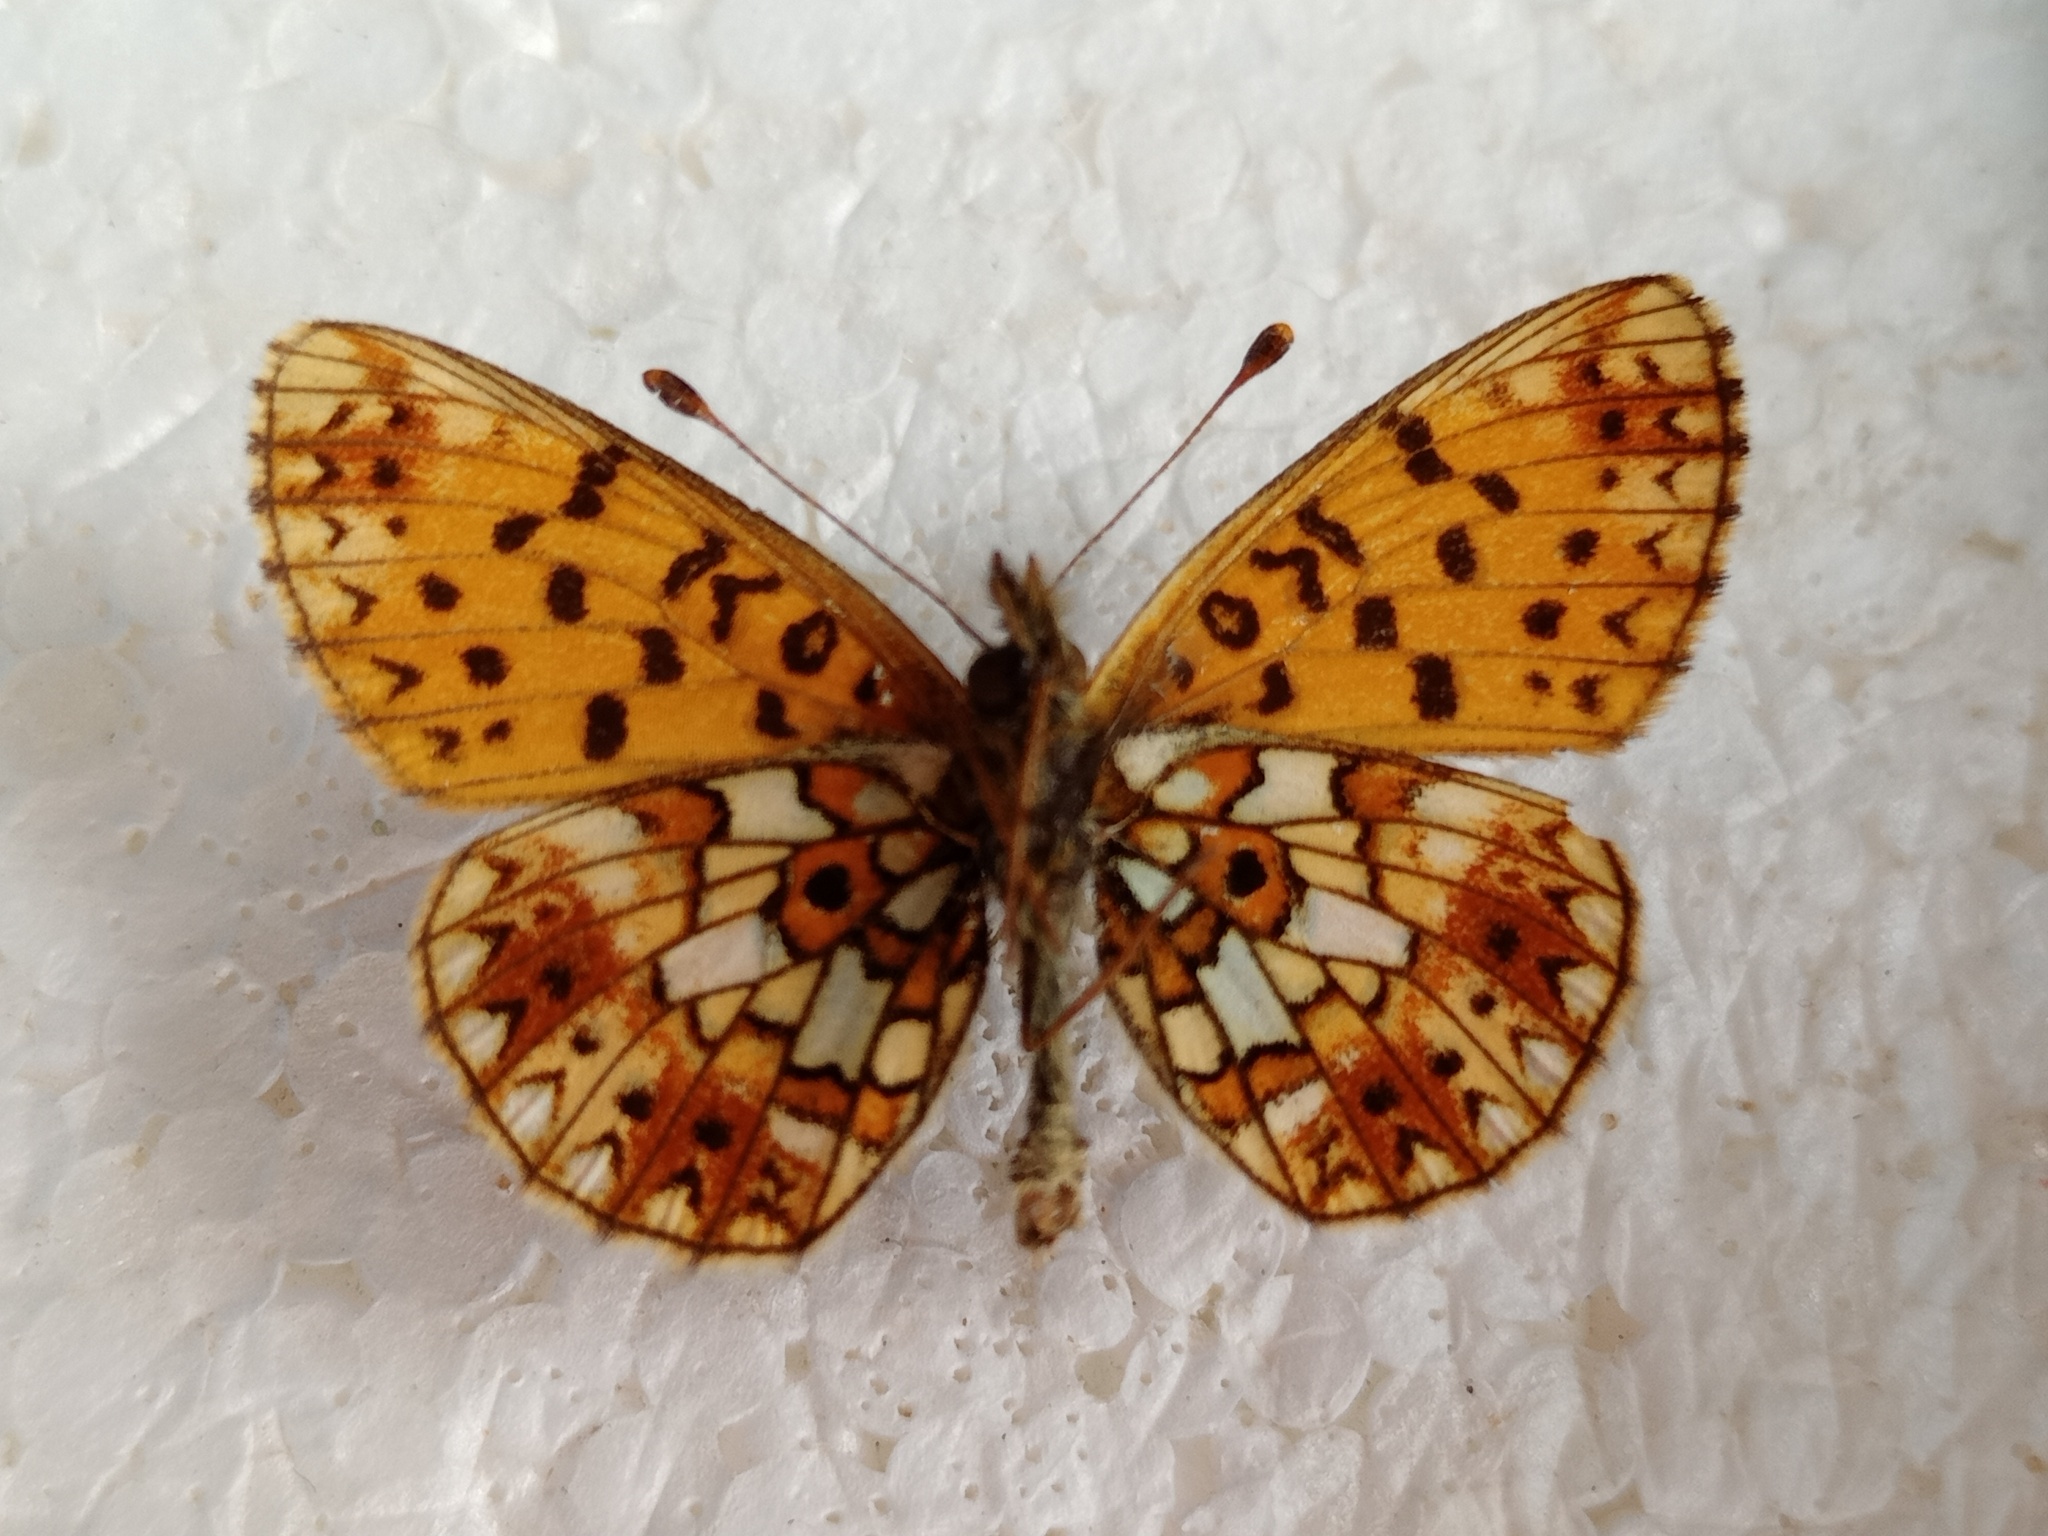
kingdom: Animalia
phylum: Arthropoda
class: Insecta
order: Lepidoptera
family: Nymphalidae
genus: Boloria
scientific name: Boloria selene
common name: Small pearl-bordered fritillary
